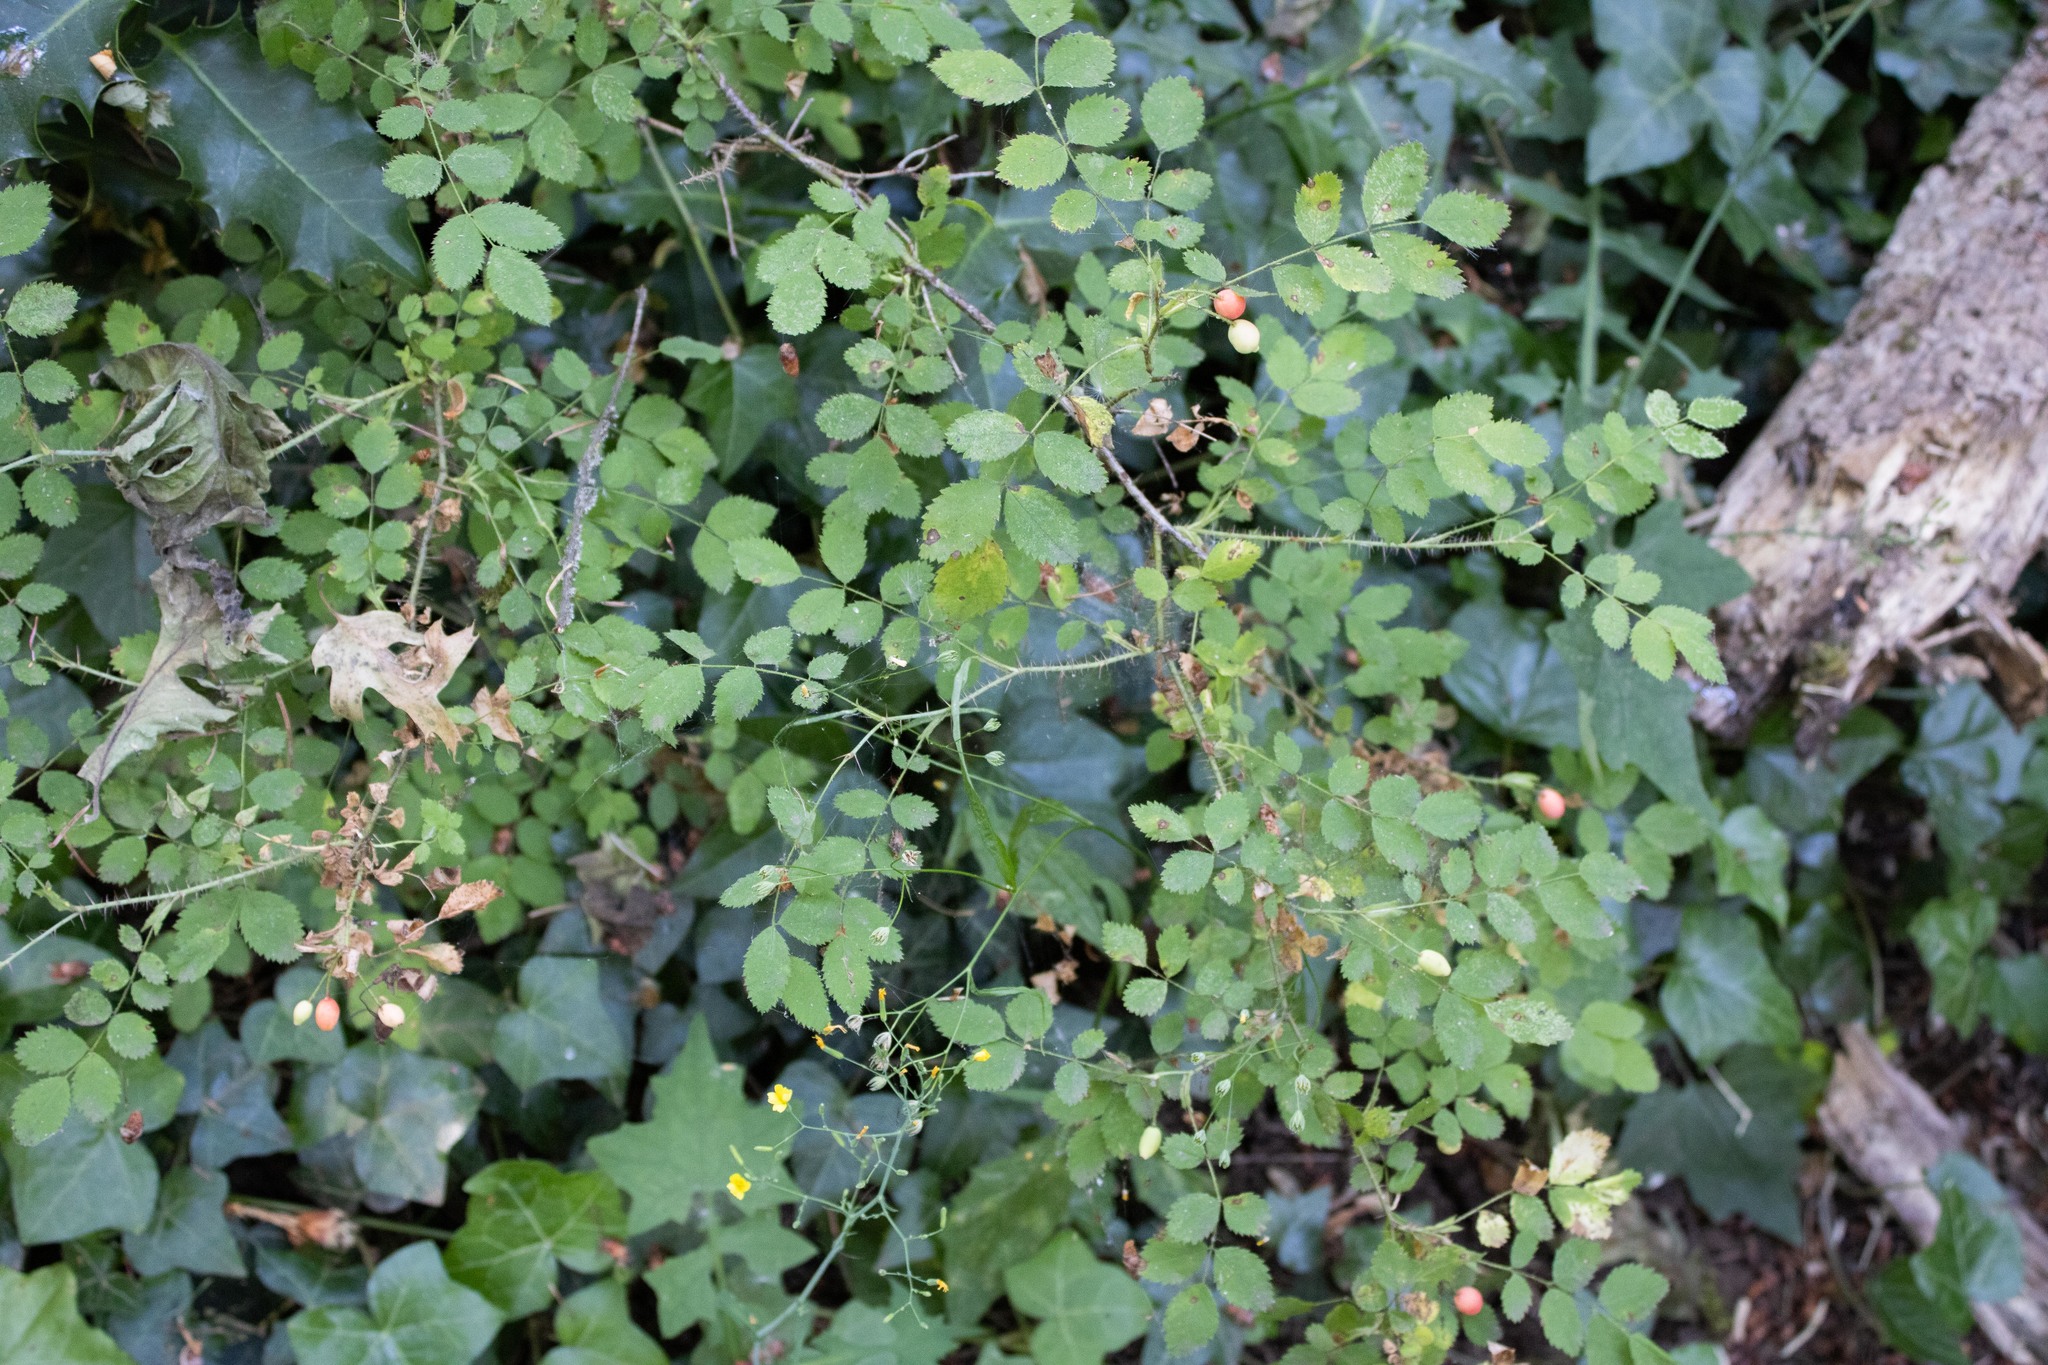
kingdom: Plantae
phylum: Tracheophyta
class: Magnoliopsida
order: Rosales
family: Rosaceae
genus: Rosa
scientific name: Rosa gymnocarpa
